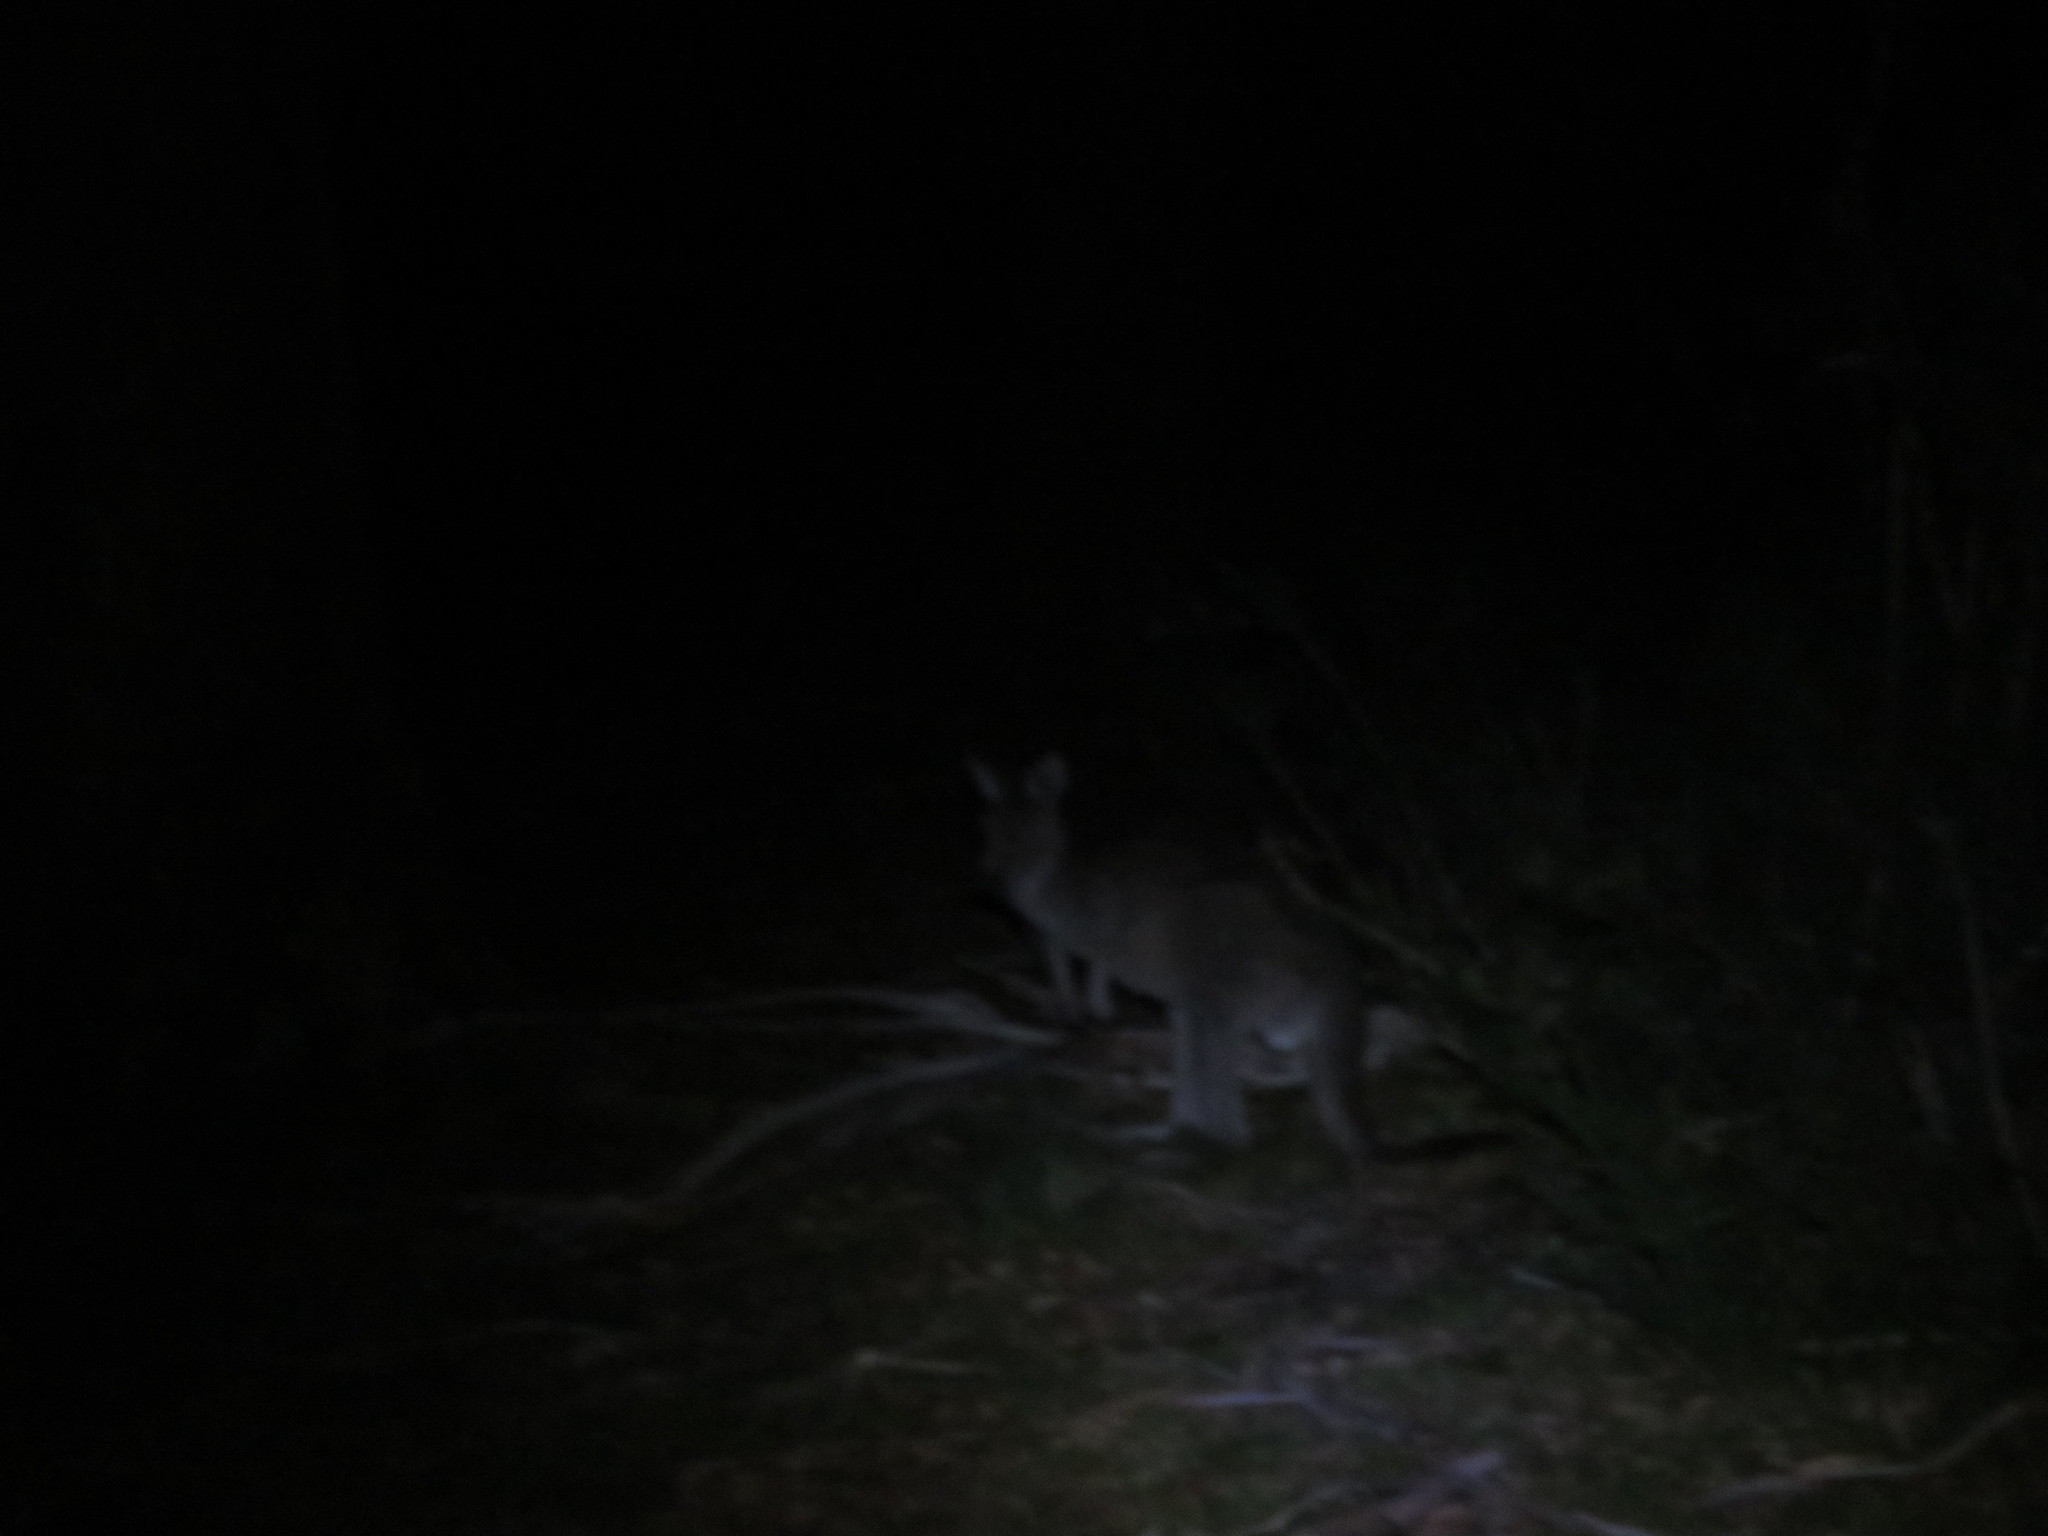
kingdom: Animalia
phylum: Chordata
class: Mammalia
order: Diprotodontia
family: Macropodidae
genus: Macropus
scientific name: Macropus giganteus
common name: Eastern grey kangaroo
